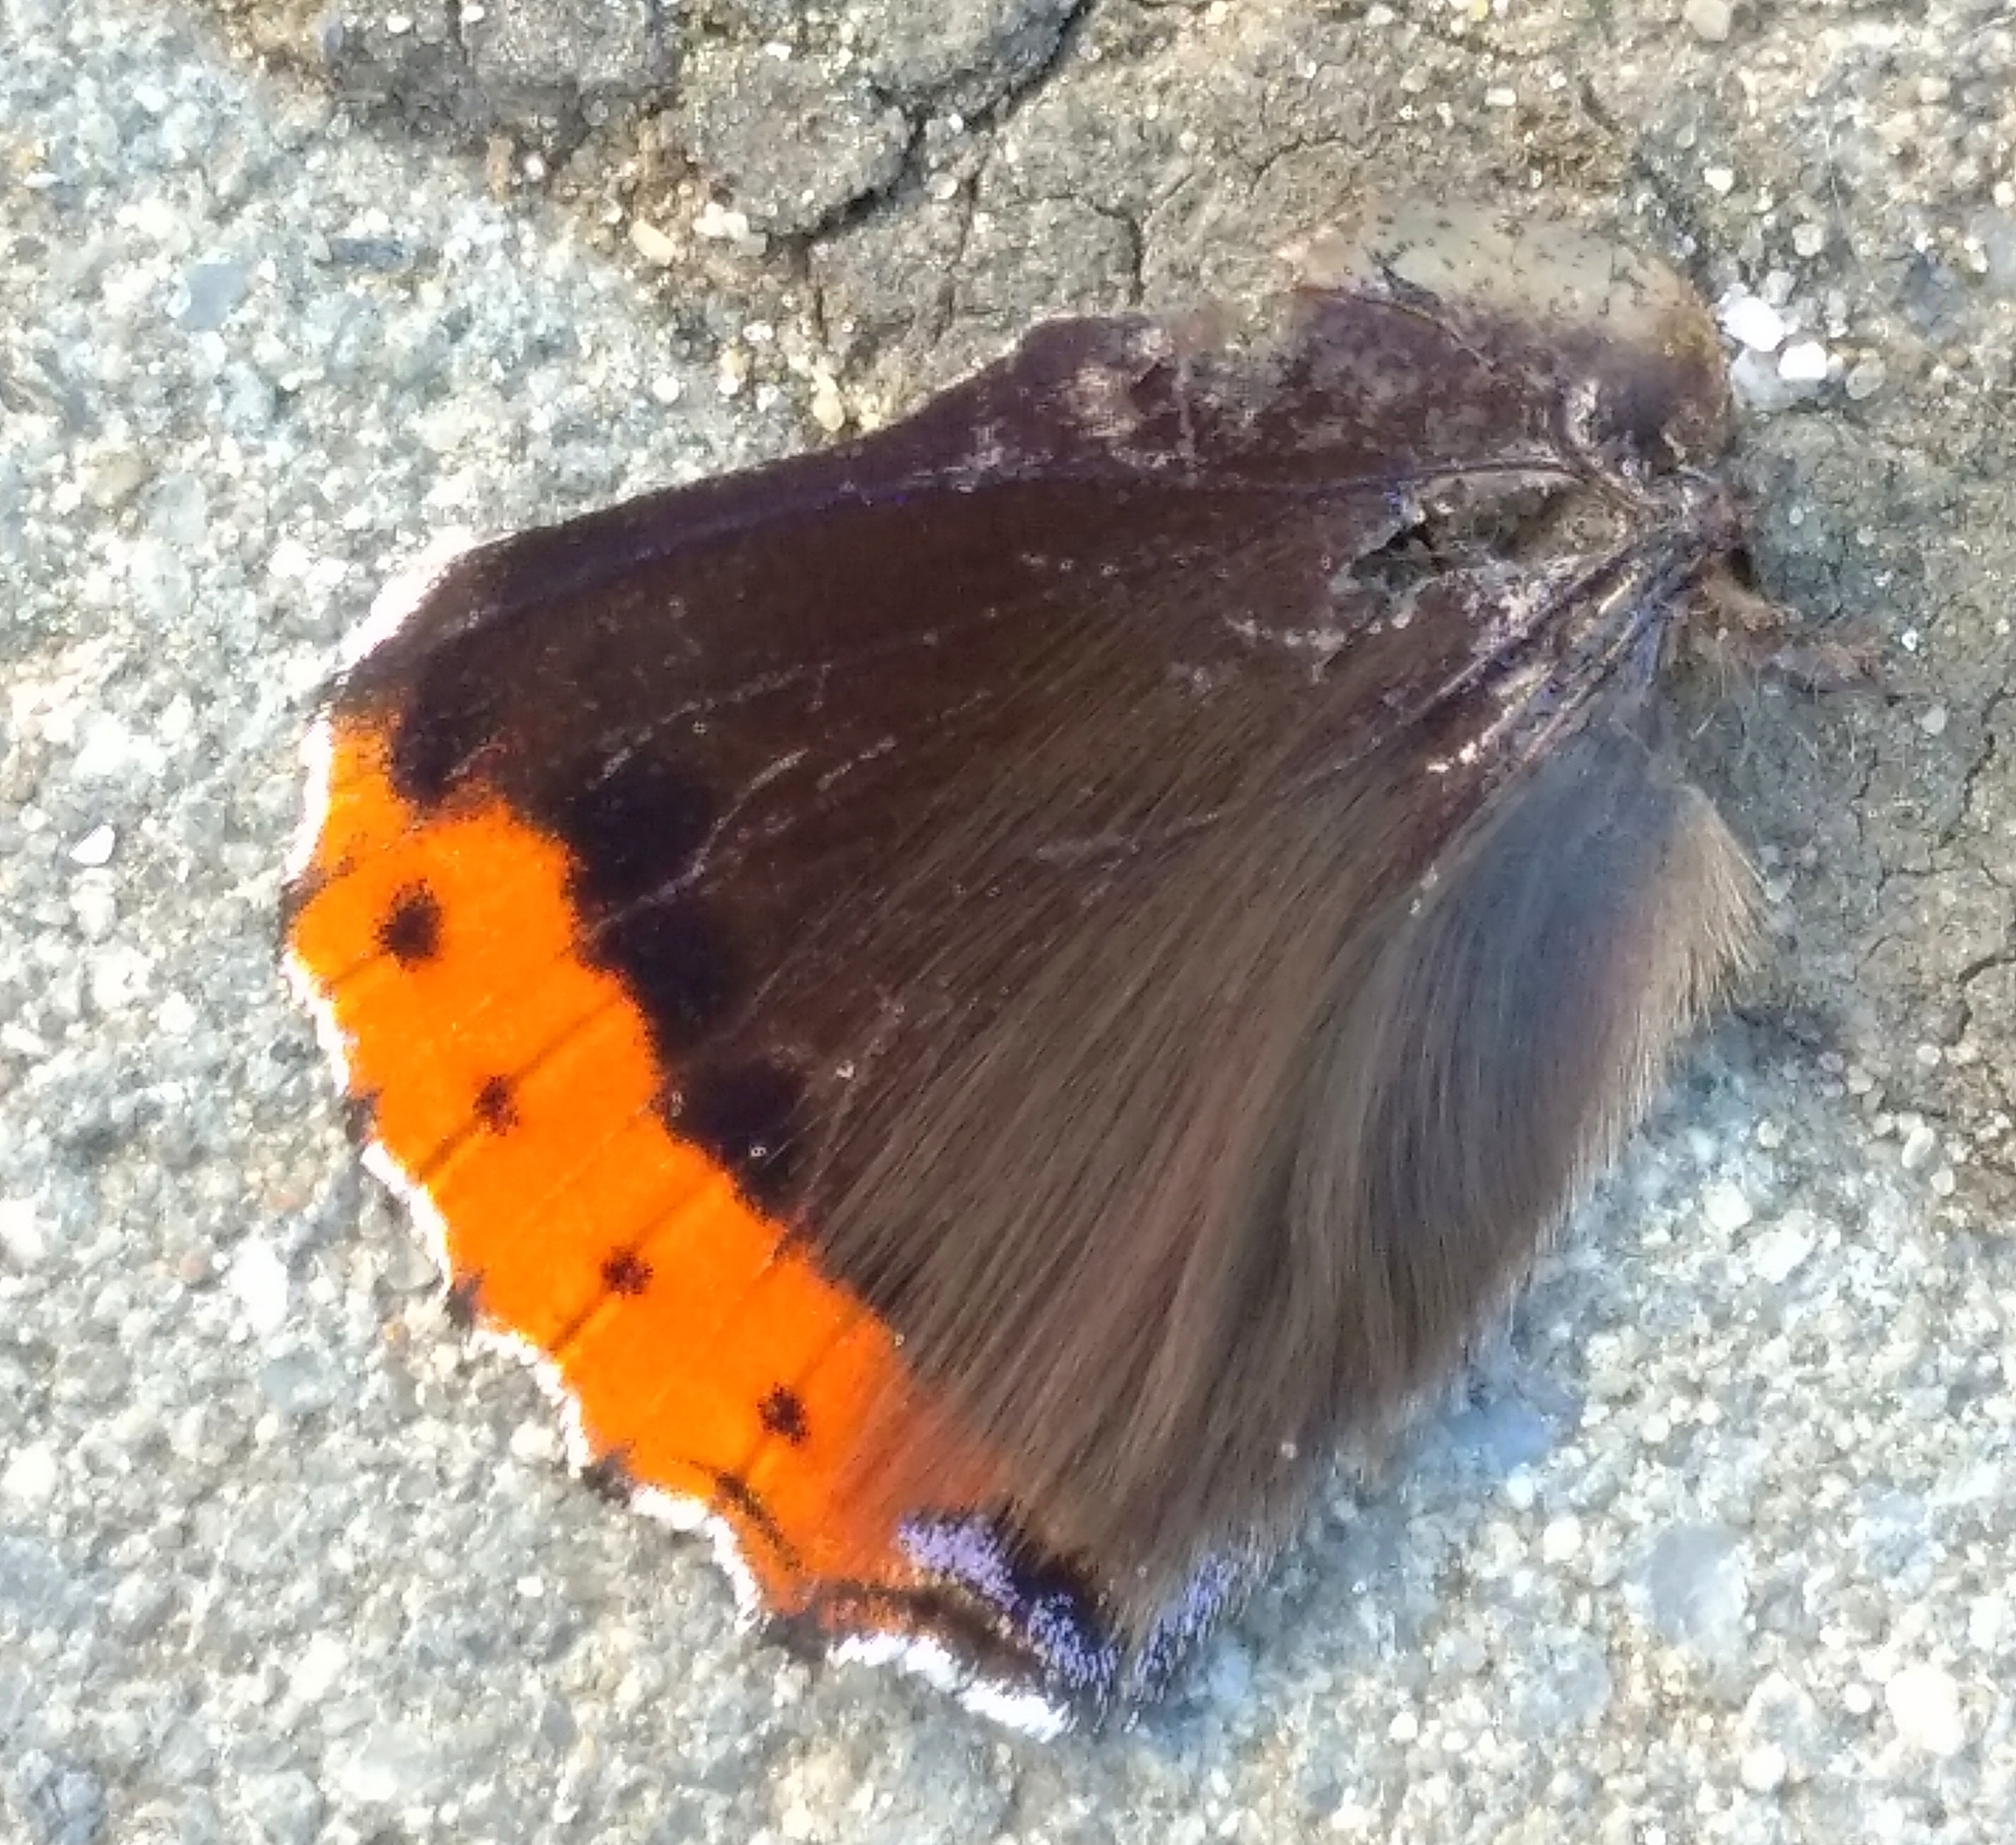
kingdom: Animalia
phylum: Arthropoda
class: Insecta
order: Lepidoptera
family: Nymphalidae
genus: Vanessa
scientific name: Vanessa atalanta
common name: Red admiral
